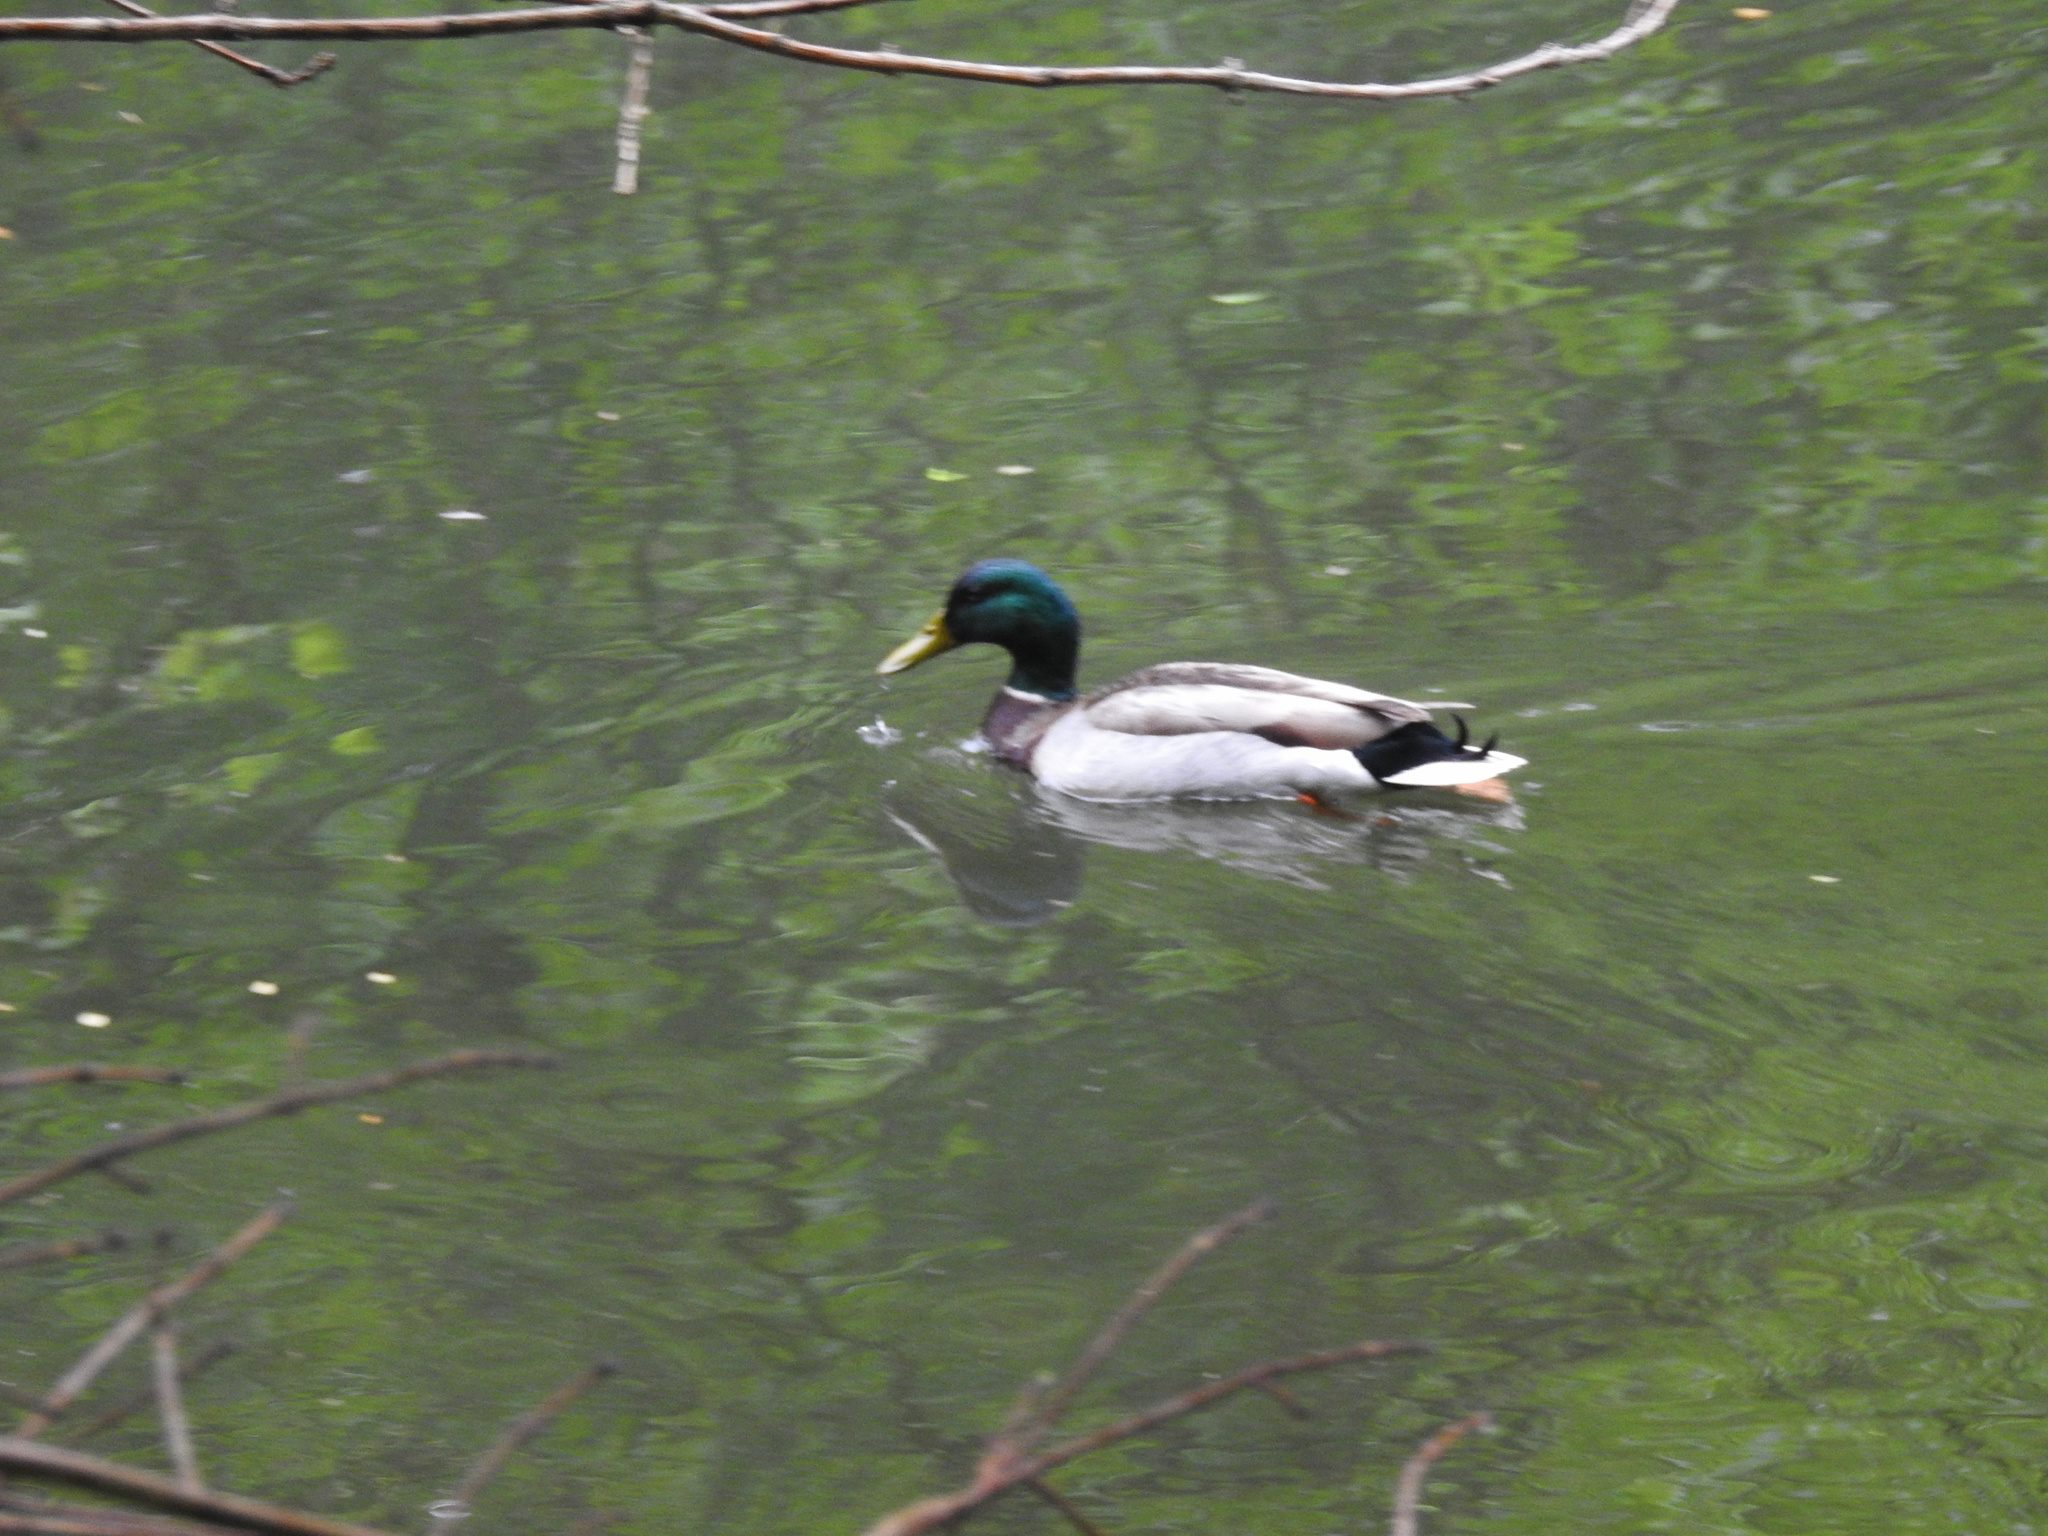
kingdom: Animalia
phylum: Chordata
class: Aves
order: Anseriformes
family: Anatidae
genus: Anas
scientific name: Anas platyrhynchos
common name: Mallard
